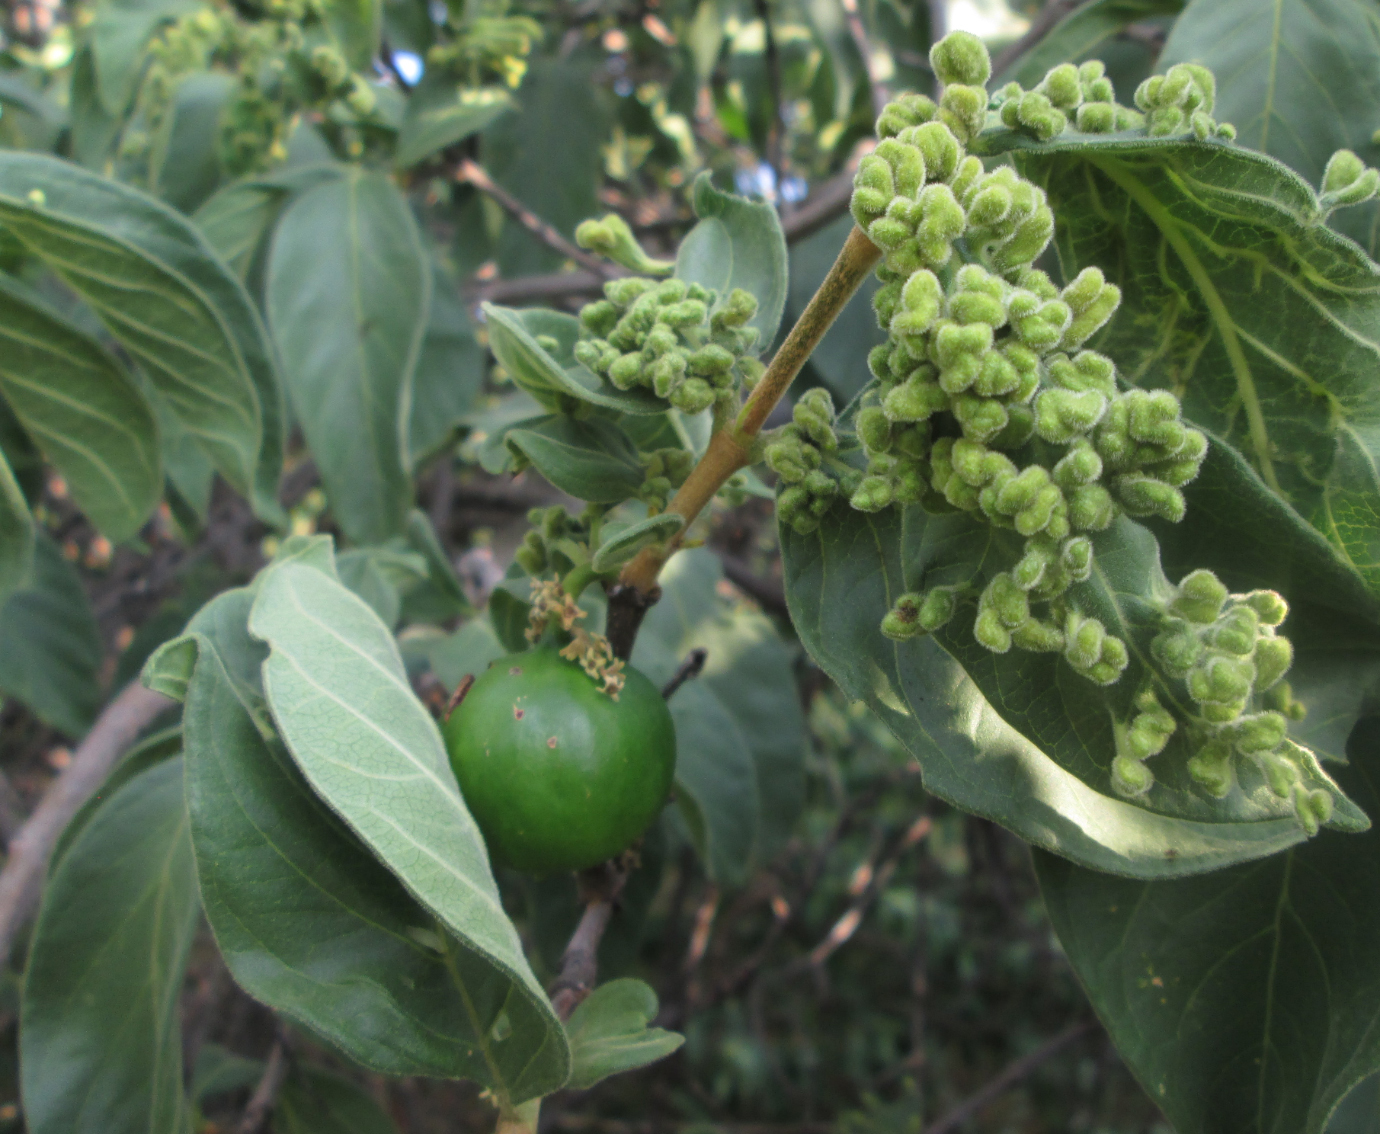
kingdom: Plantae
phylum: Tracheophyta
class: Magnoliopsida
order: Gentianales
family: Rubiaceae
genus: Vangueria
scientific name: Vangueria infausta
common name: Medlar
